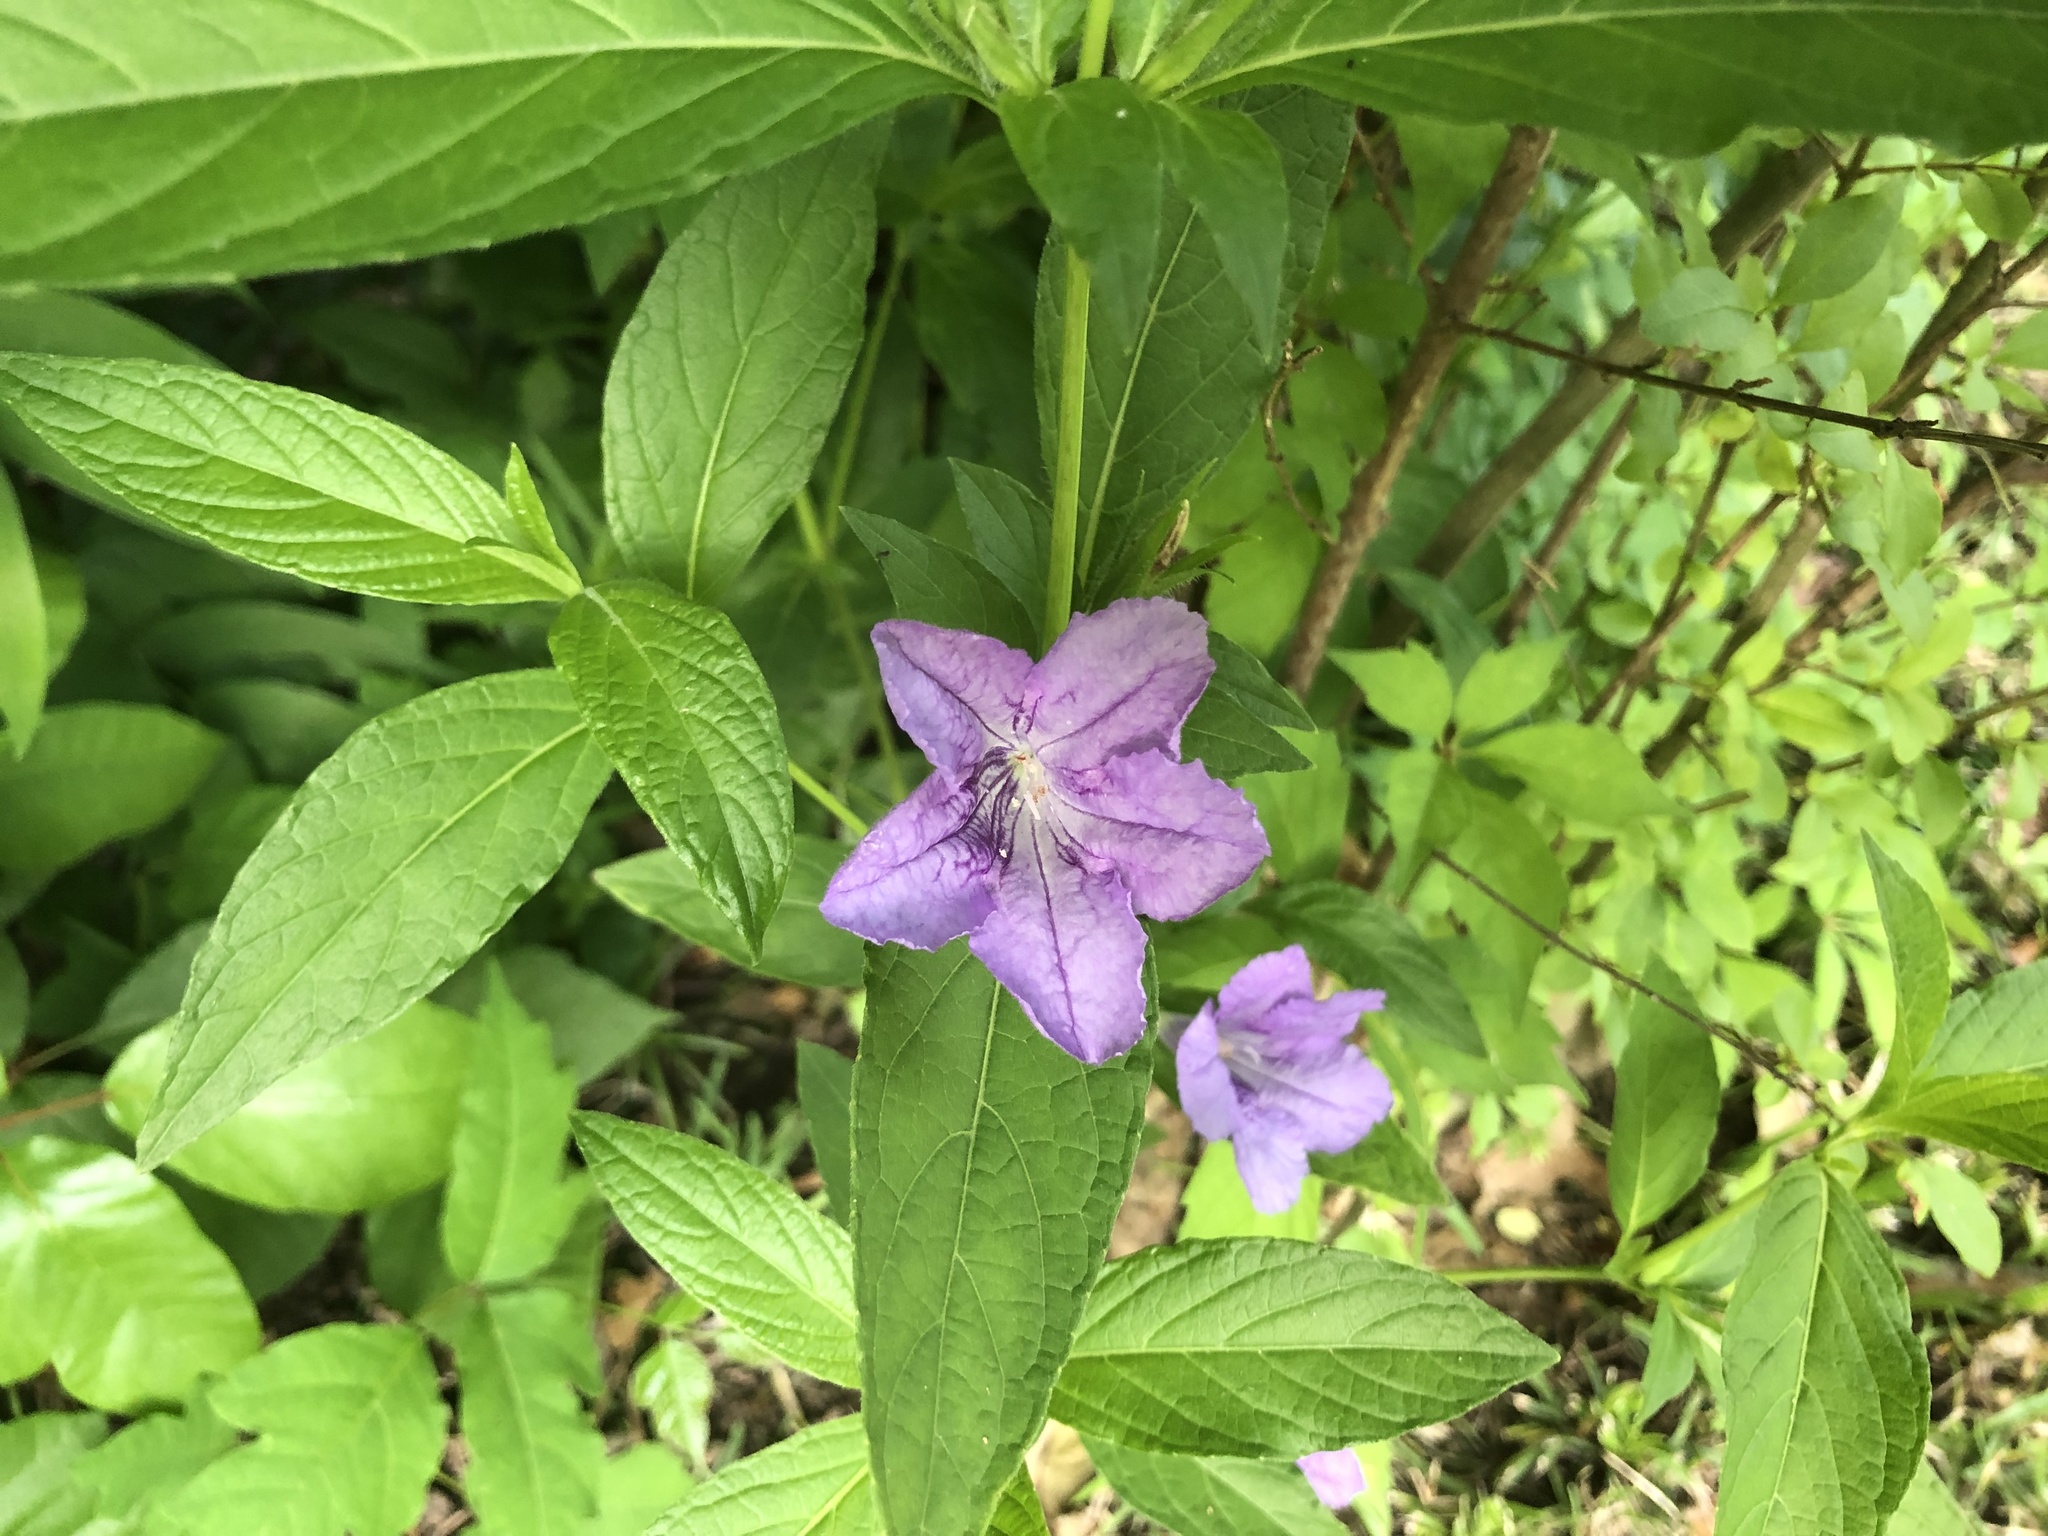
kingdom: Plantae
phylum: Tracheophyta
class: Magnoliopsida
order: Lamiales
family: Acanthaceae
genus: Ruellia
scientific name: Ruellia strepens
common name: Limestone wild petunia
